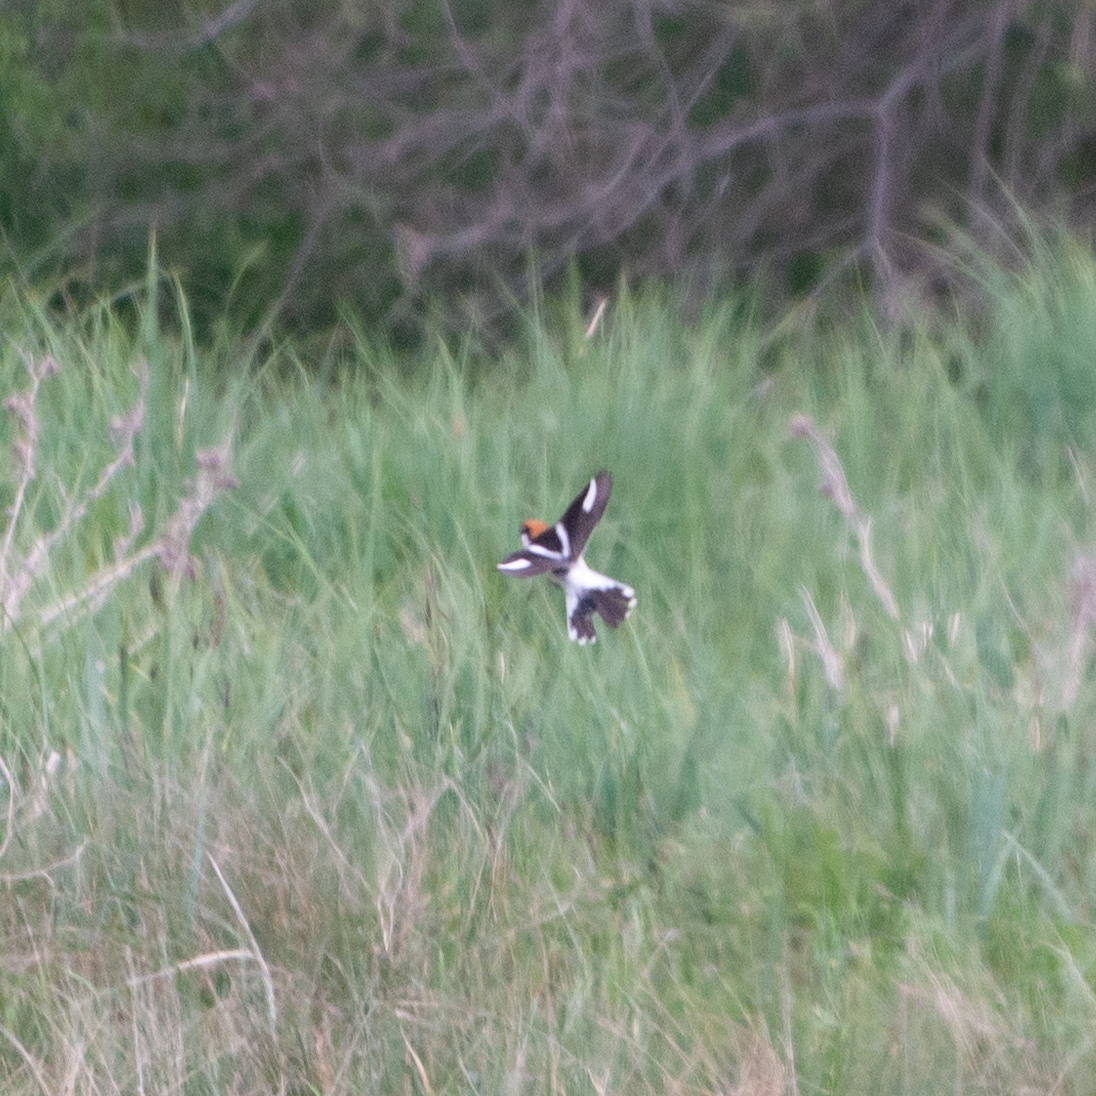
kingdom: Animalia
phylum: Chordata
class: Aves
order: Passeriformes
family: Laniidae
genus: Lanius
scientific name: Lanius senator
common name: Woodchat shrike
